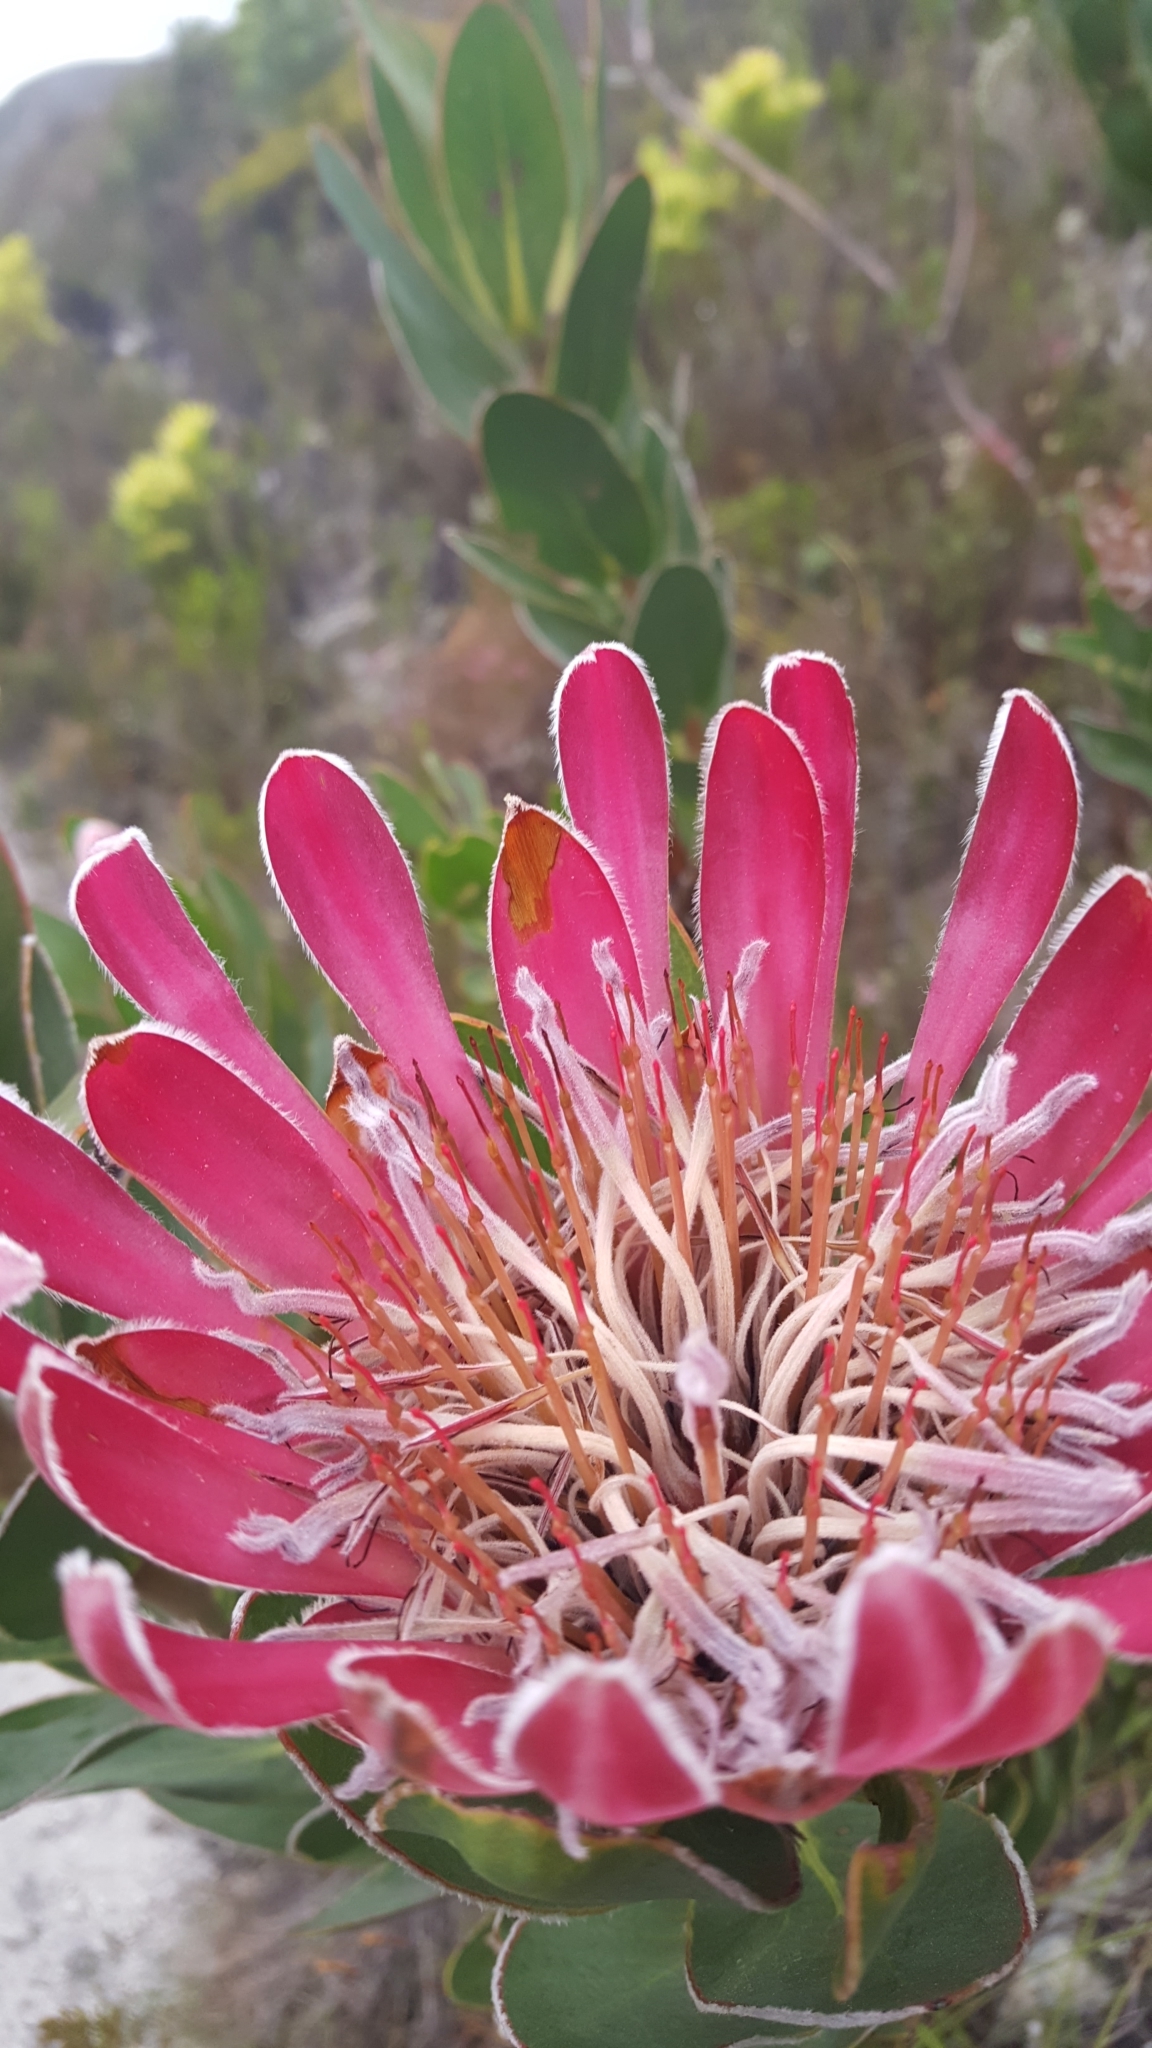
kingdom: Plantae
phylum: Tracheophyta
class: Magnoliopsida
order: Proteales
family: Proteaceae
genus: Protea
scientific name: Protea compacta
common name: Bot river protea
